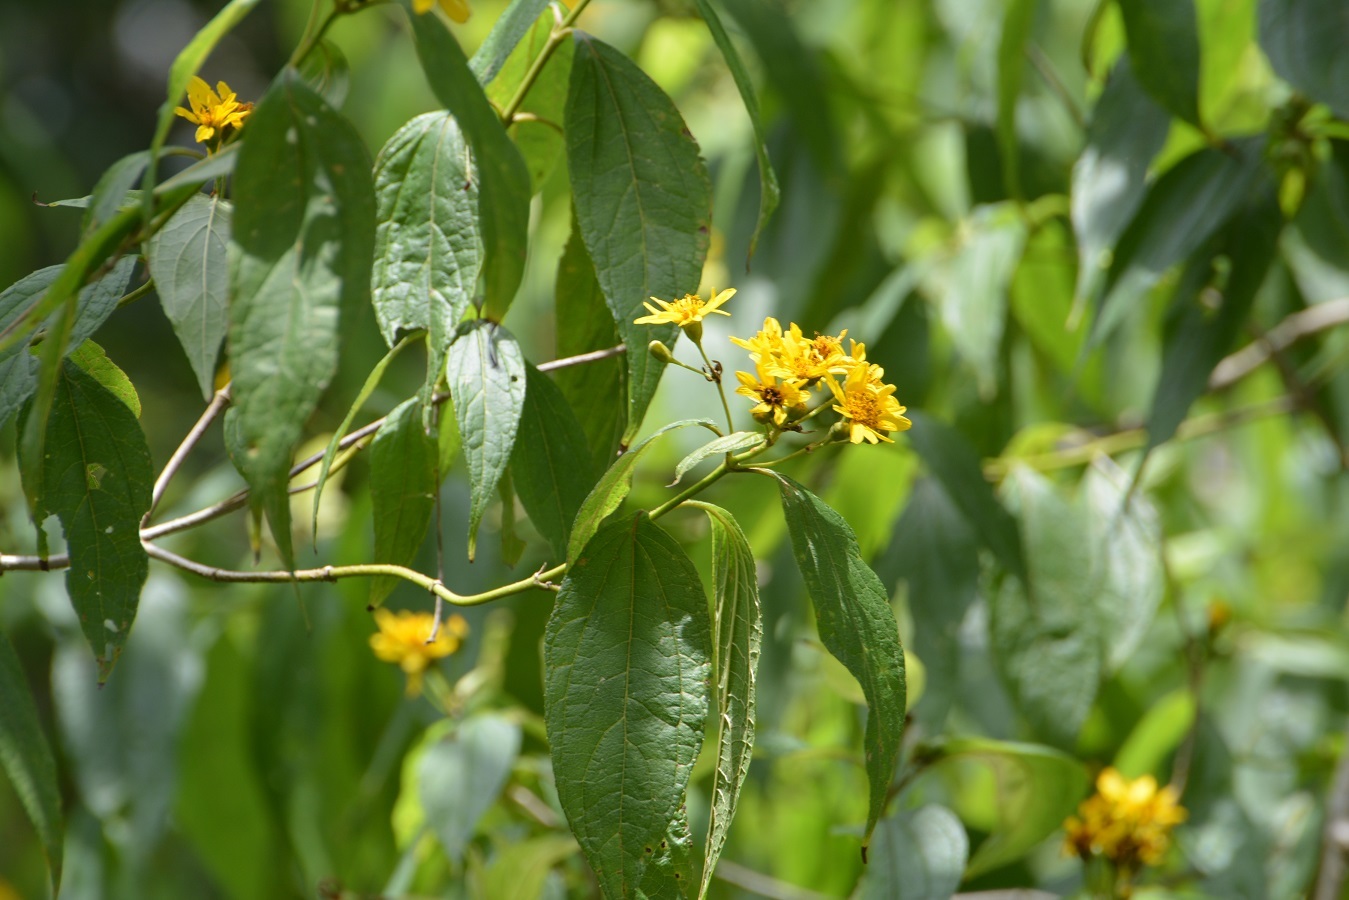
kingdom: Plantae
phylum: Tracheophyta
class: Magnoliopsida
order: Asterales
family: Asteraceae
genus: Perymenium
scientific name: Perymenium grande
